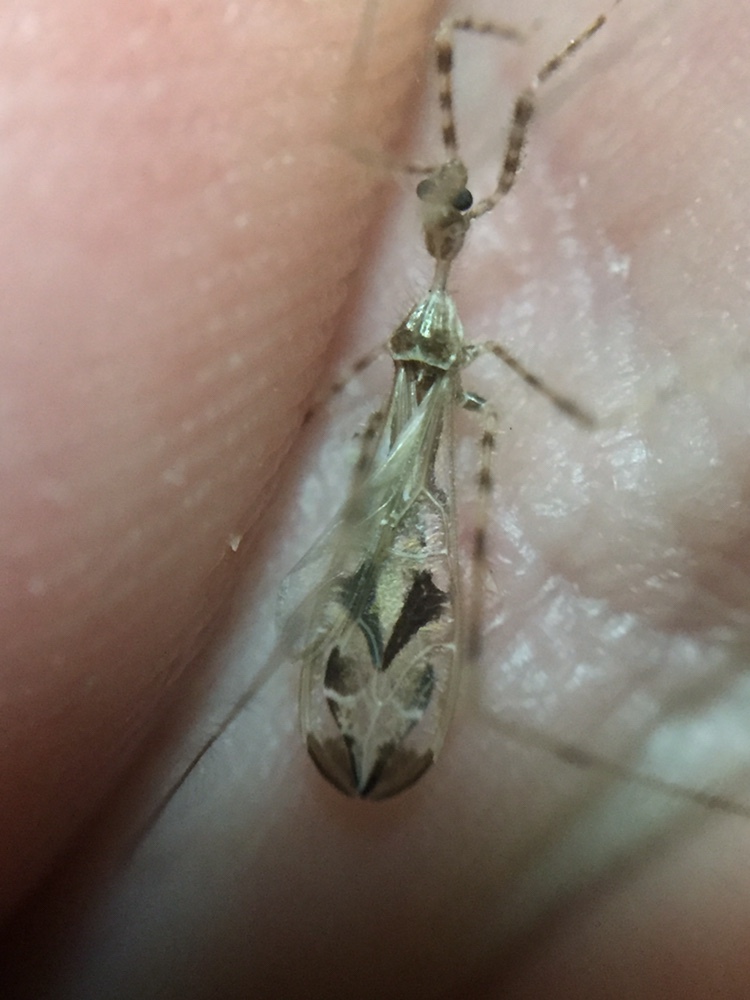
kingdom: Animalia
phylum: Arthropoda
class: Insecta
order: Hemiptera
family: Reduviidae
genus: Stenolemus
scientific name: Stenolemus fraterculus
